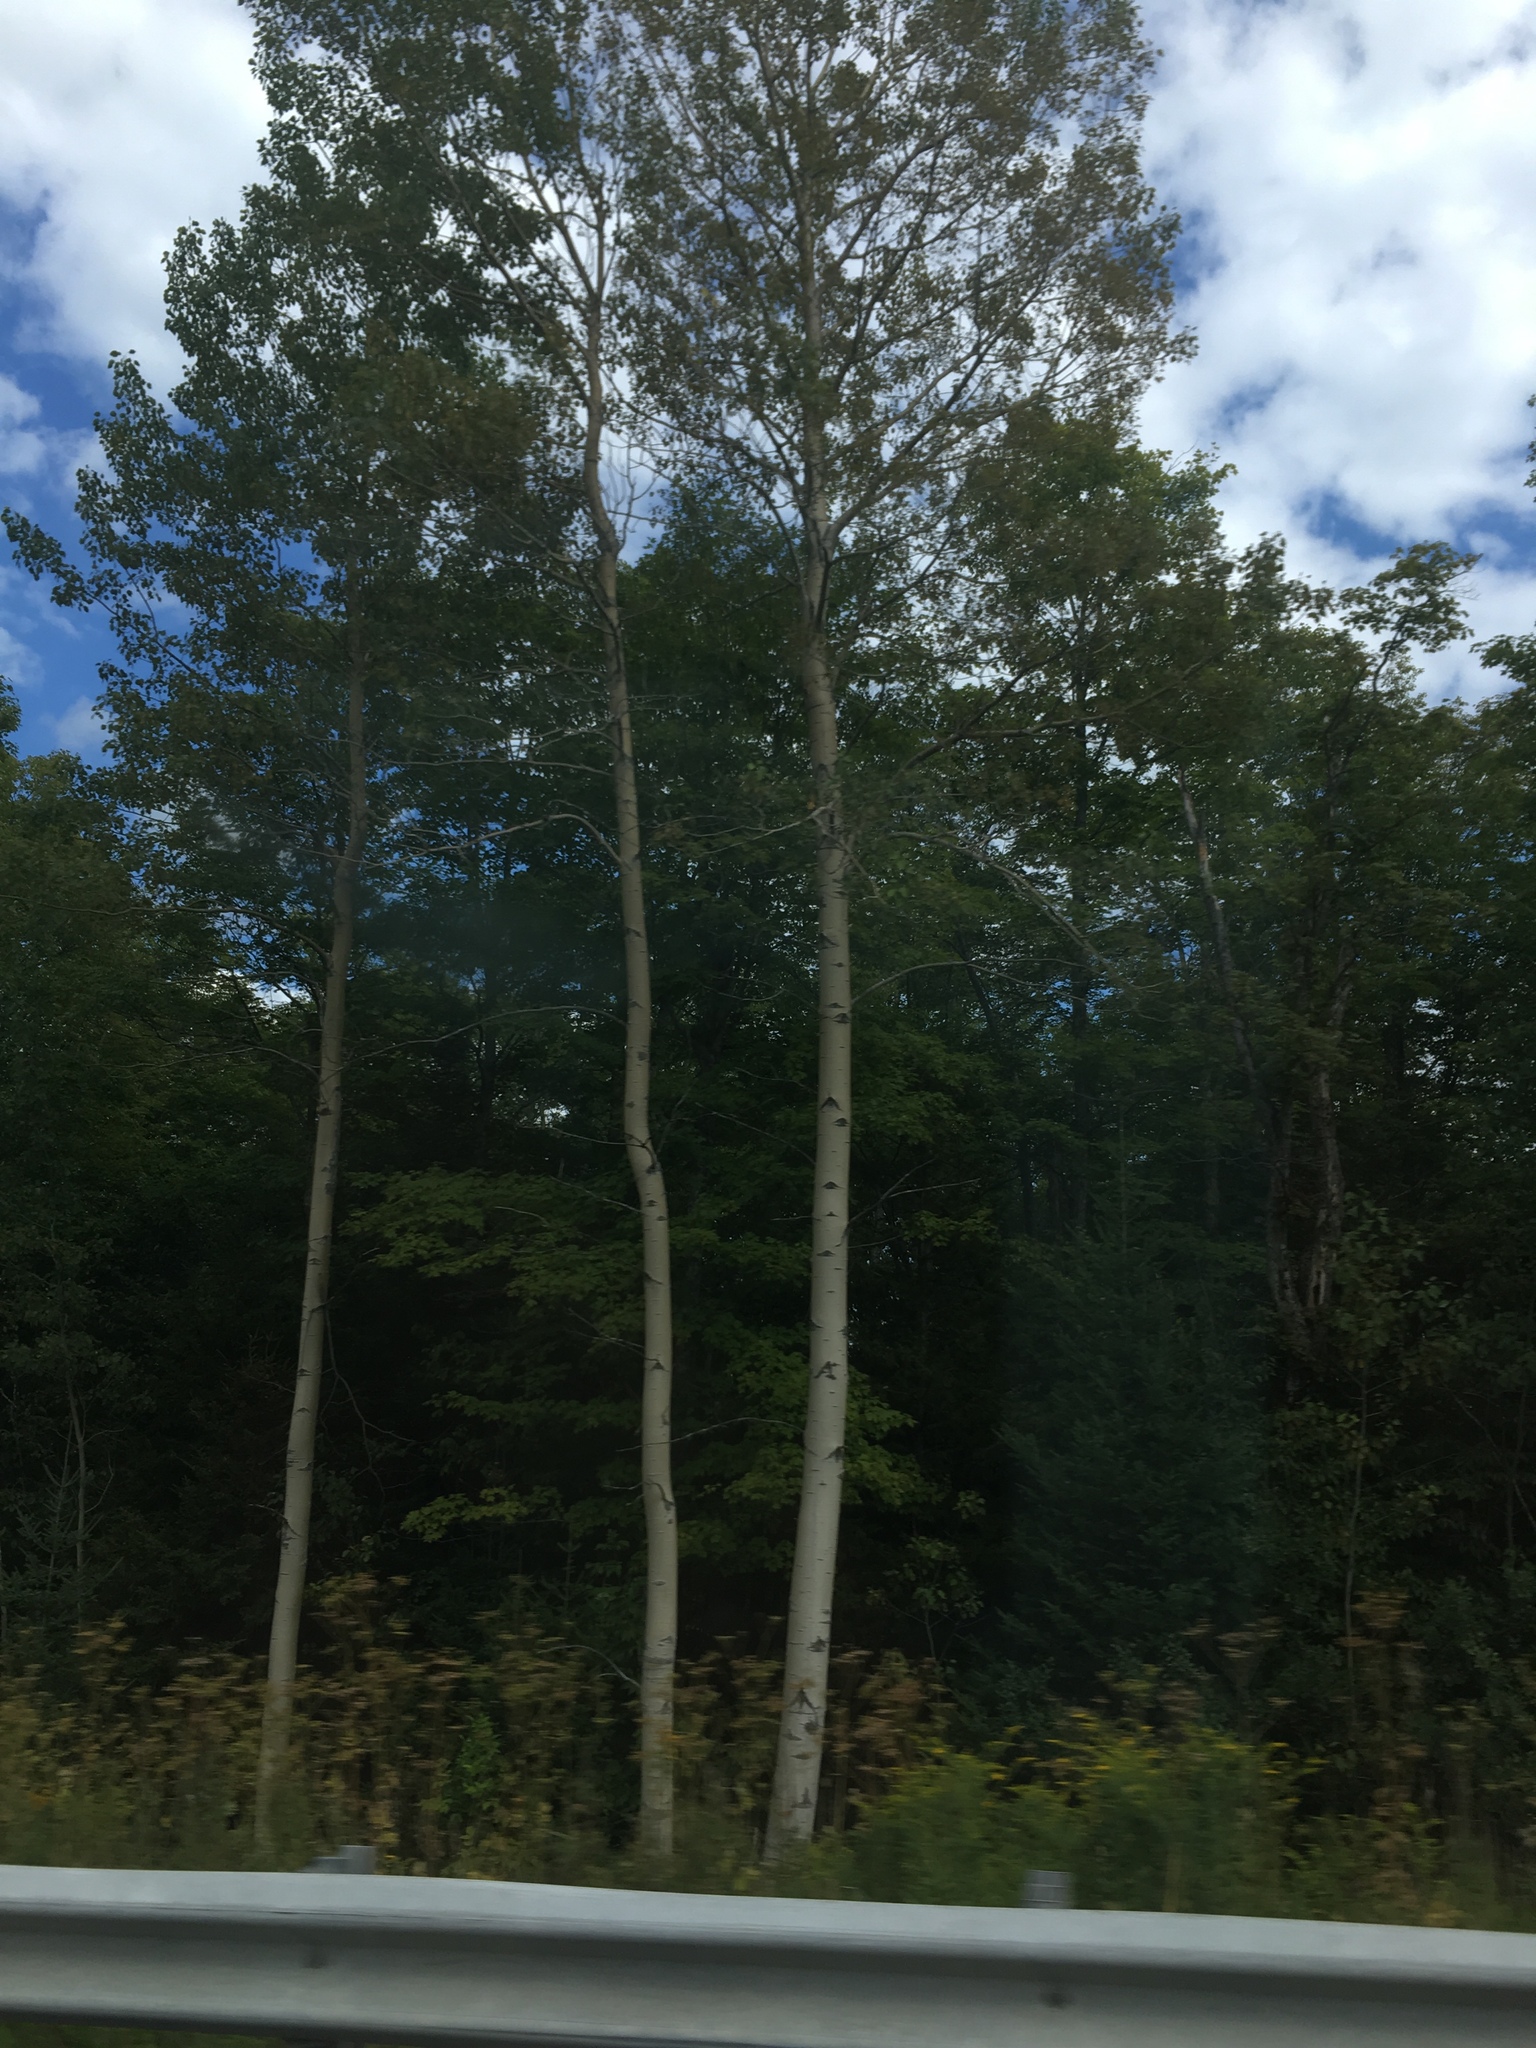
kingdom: Plantae
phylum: Tracheophyta
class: Magnoliopsida
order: Malpighiales
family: Salicaceae
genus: Populus
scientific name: Populus tremuloides
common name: Quaking aspen
